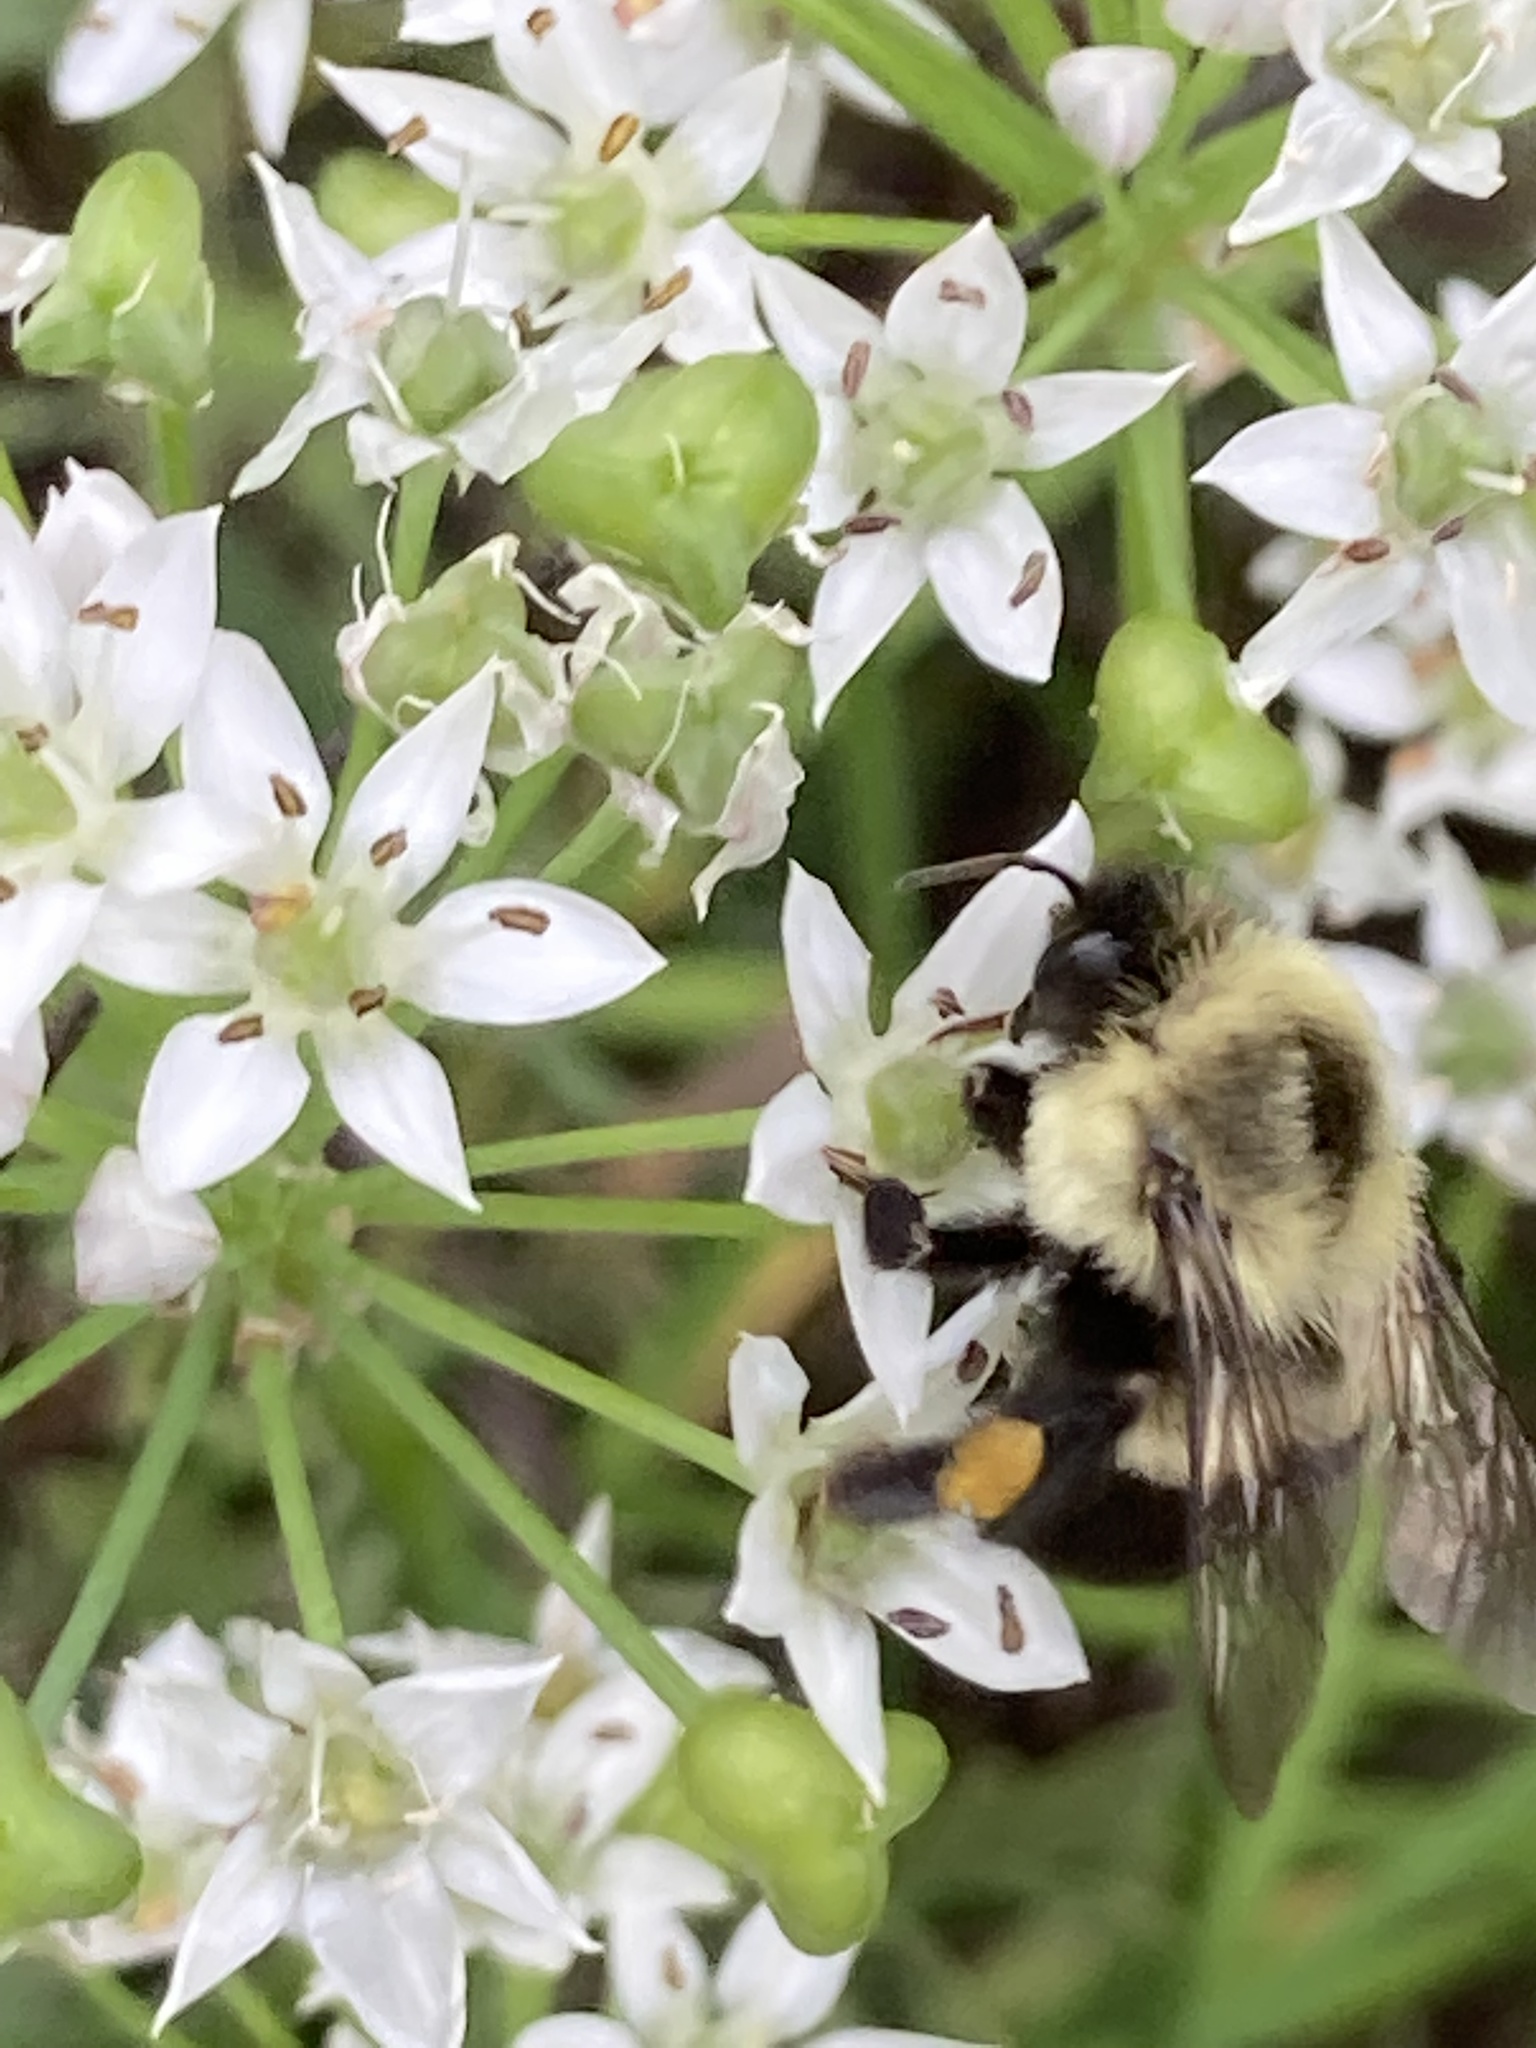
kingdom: Animalia
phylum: Arthropoda
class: Insecta
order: Hymenoptera
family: Apidae
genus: Bombus
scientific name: Bombus impatiens
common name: Common eastern bumble bee
